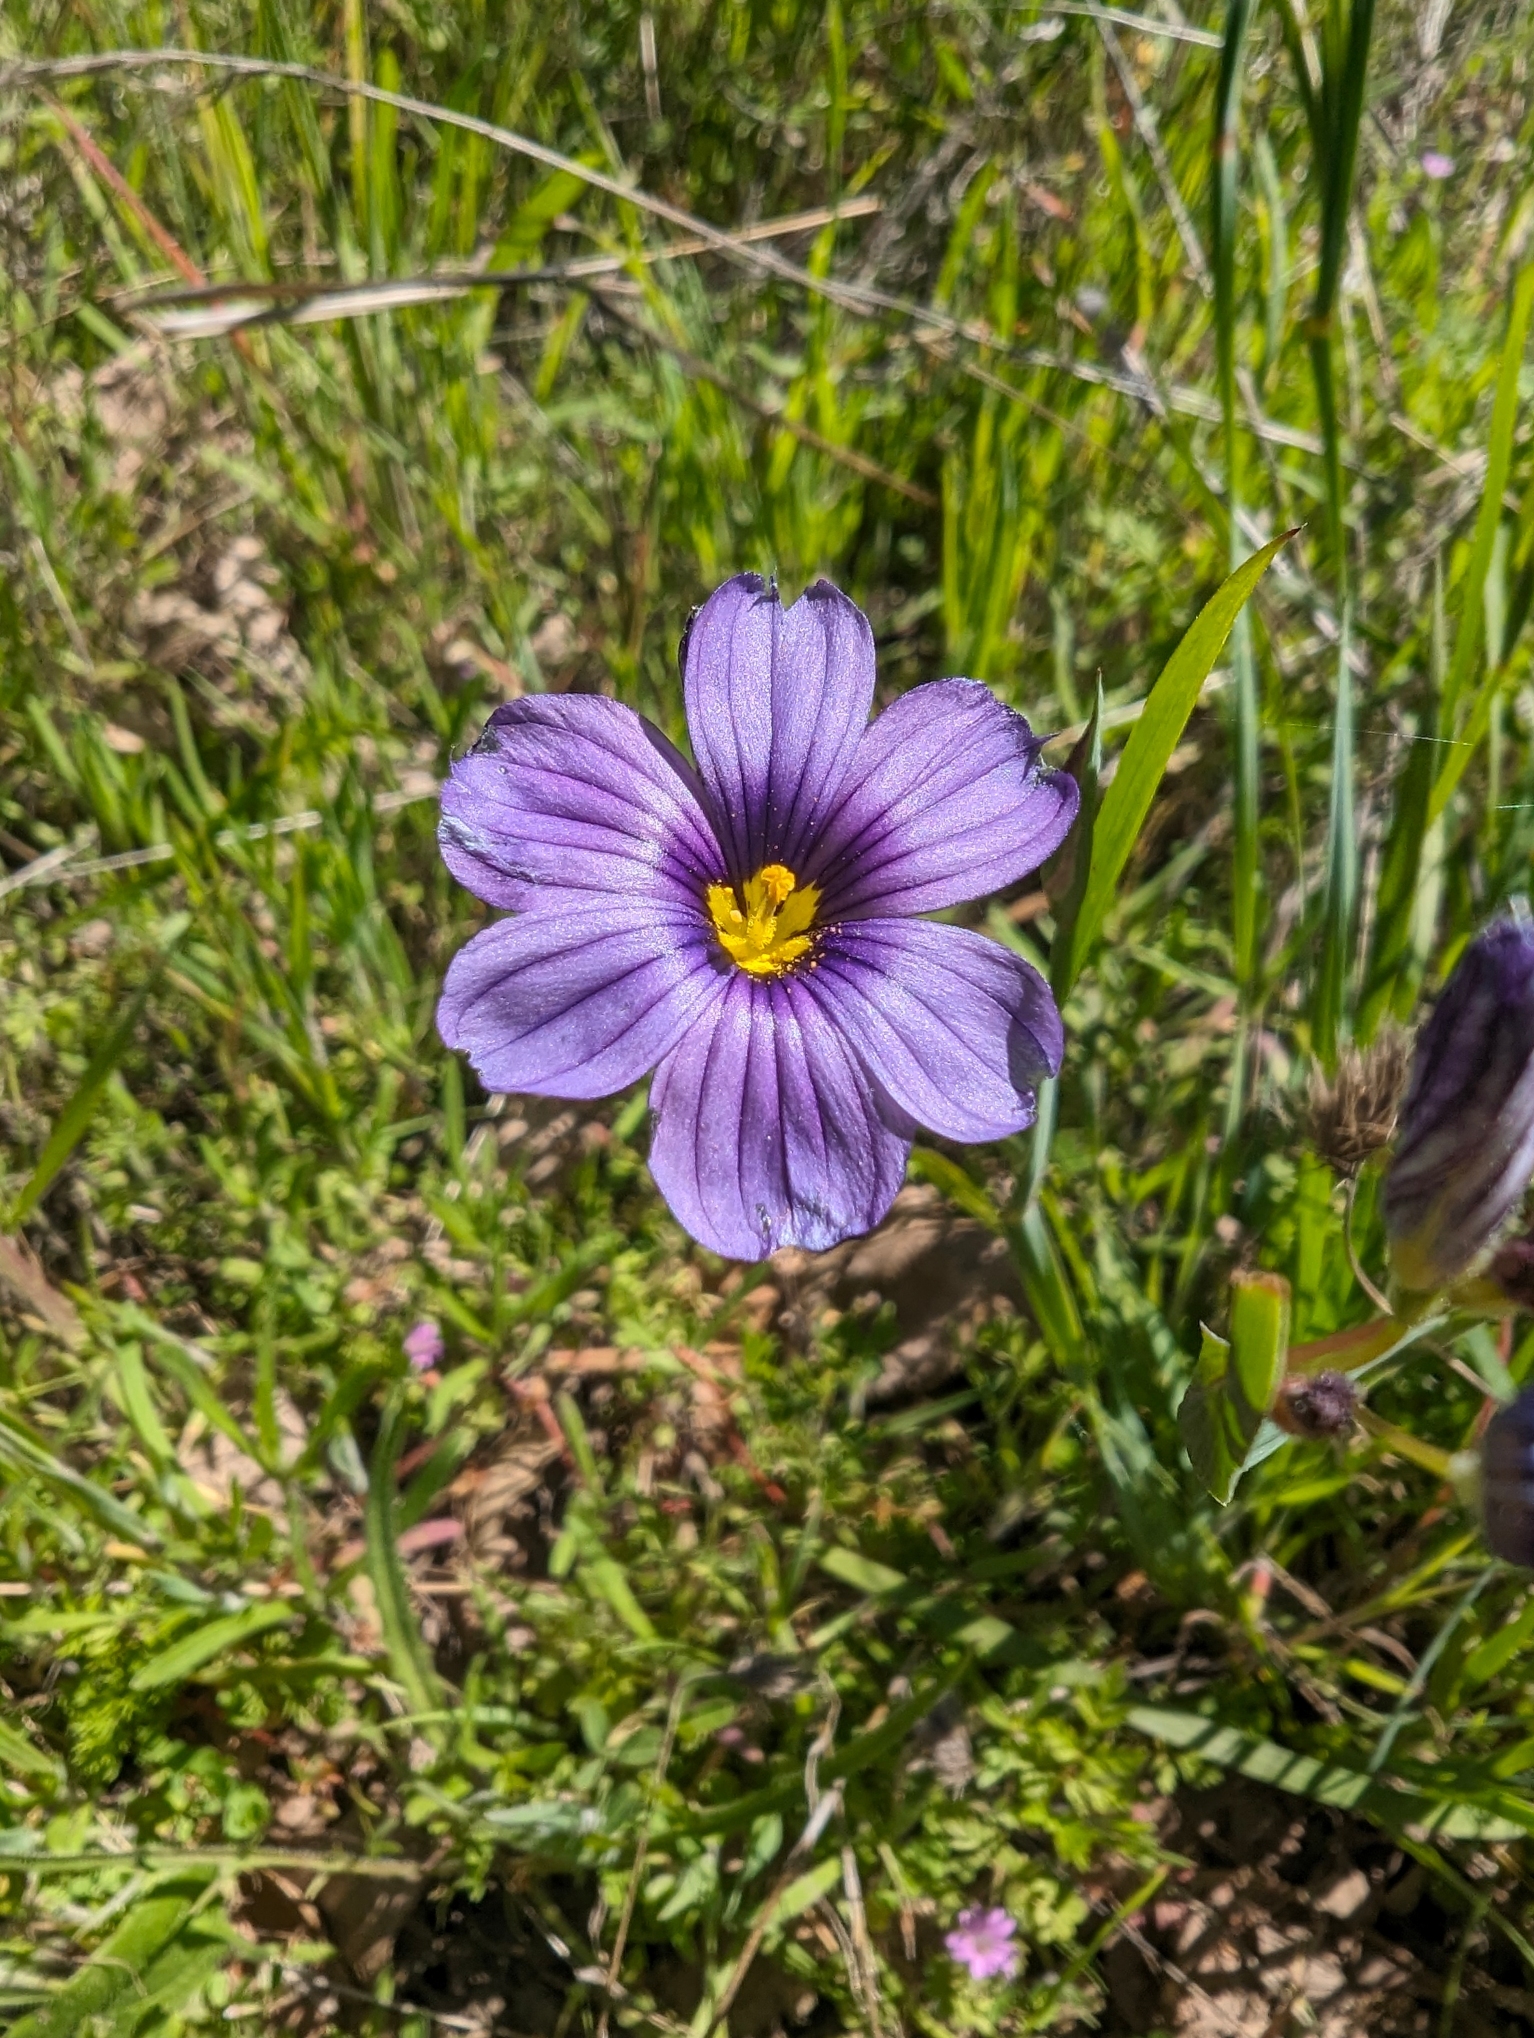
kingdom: Plantae
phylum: Tracheophyta
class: Liliopsida
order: Asparagales
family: Iridaceae
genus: Sisyrinchium
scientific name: Sisyrinchium bellum
